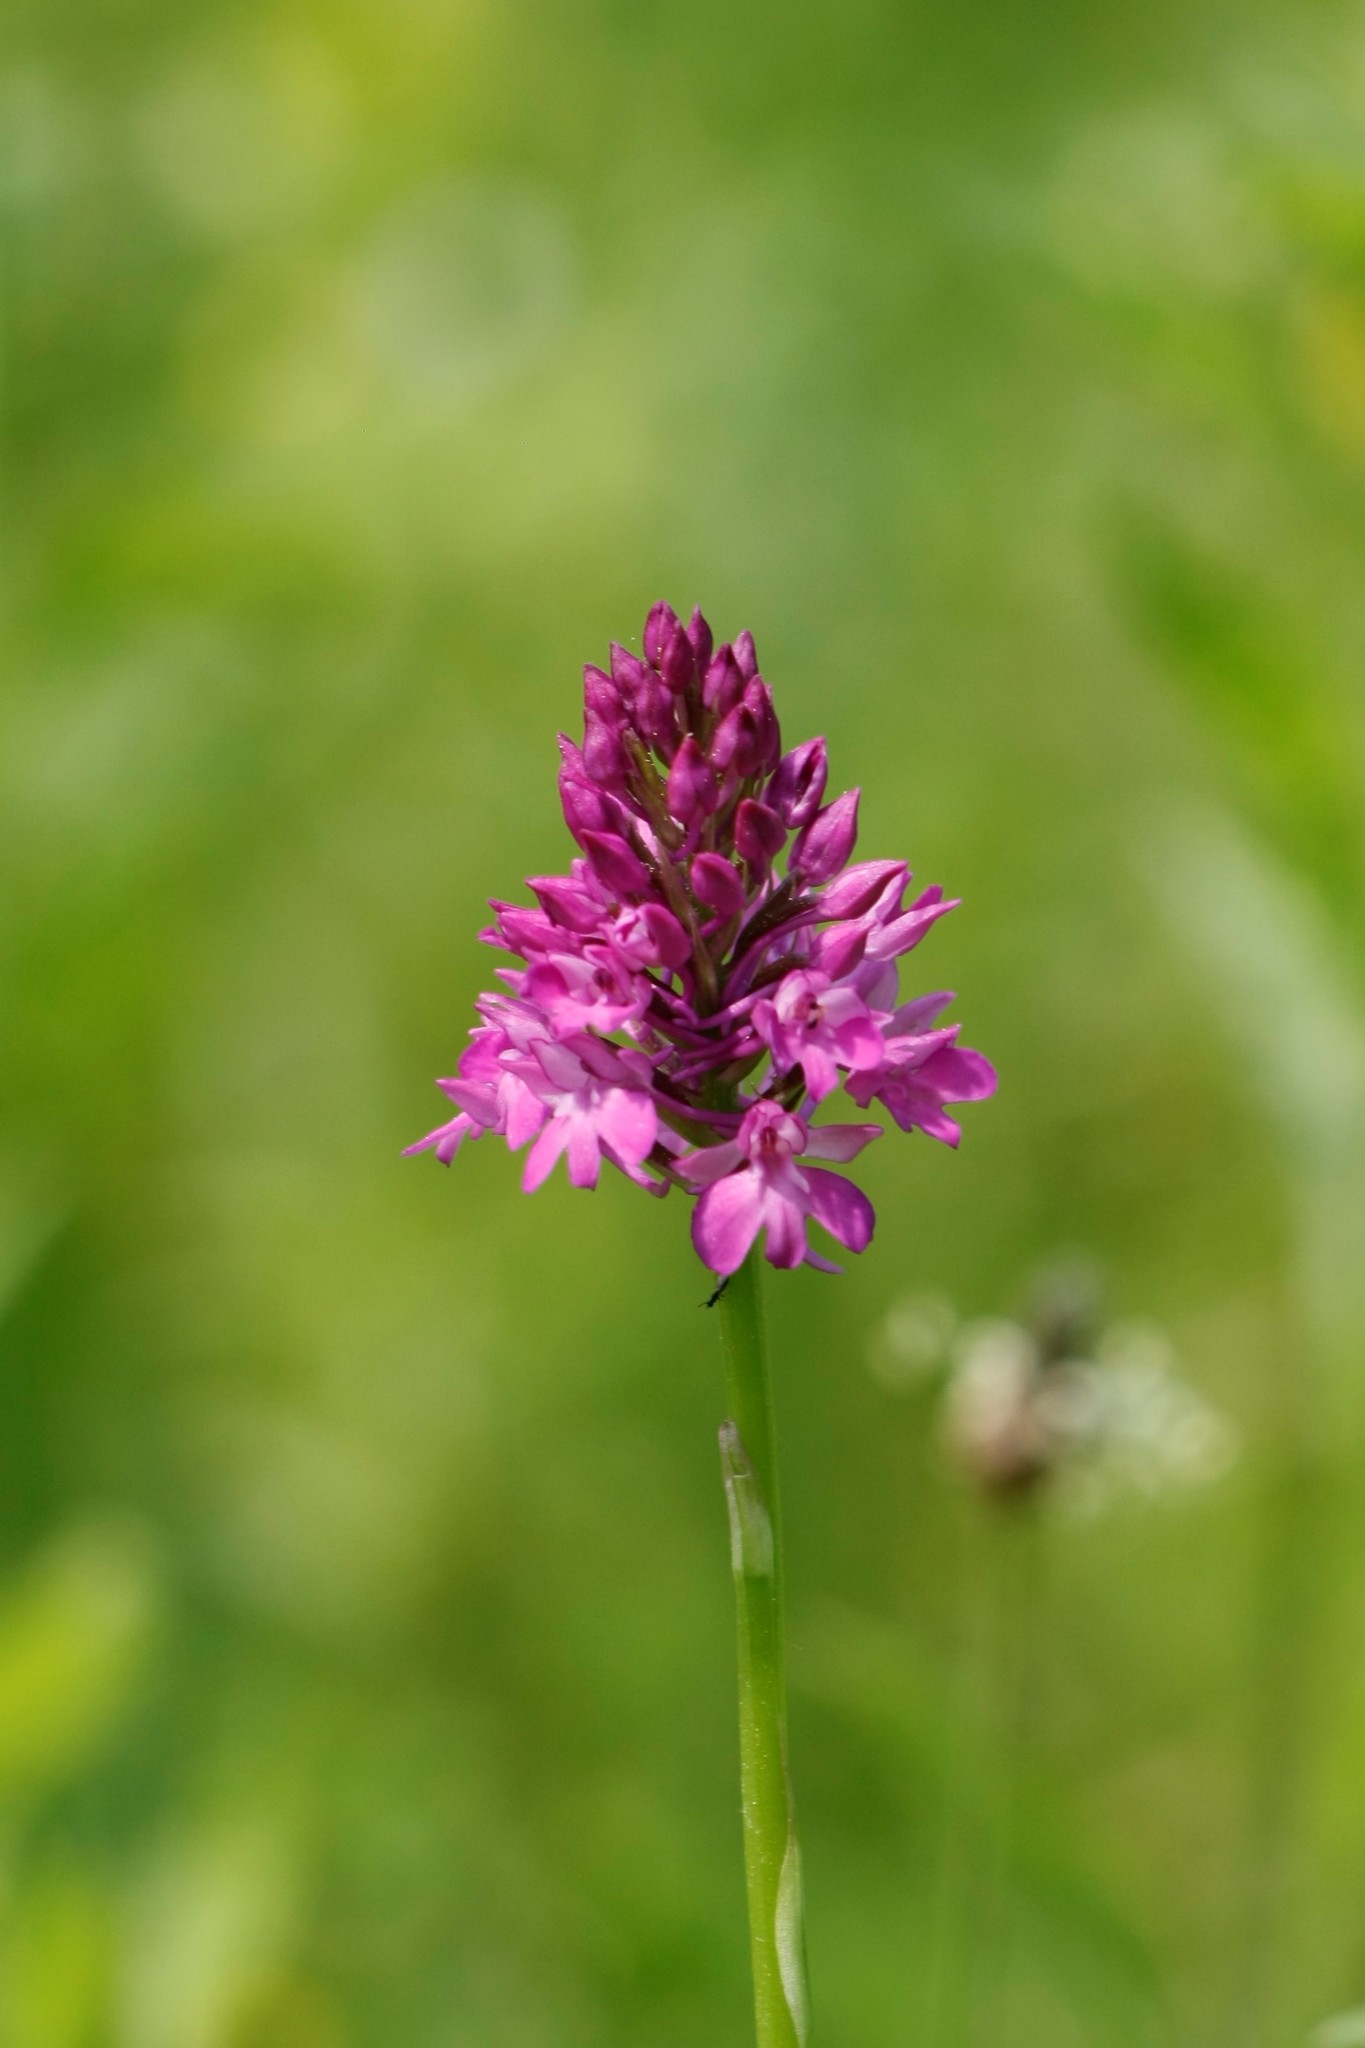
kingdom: Plantae
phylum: Tracheophyta
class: Liliopsida
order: Asparagales
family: Orchidaceae
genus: Anacamptis
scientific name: Anacamptis pyramidalis
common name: Pyramidal orchid
